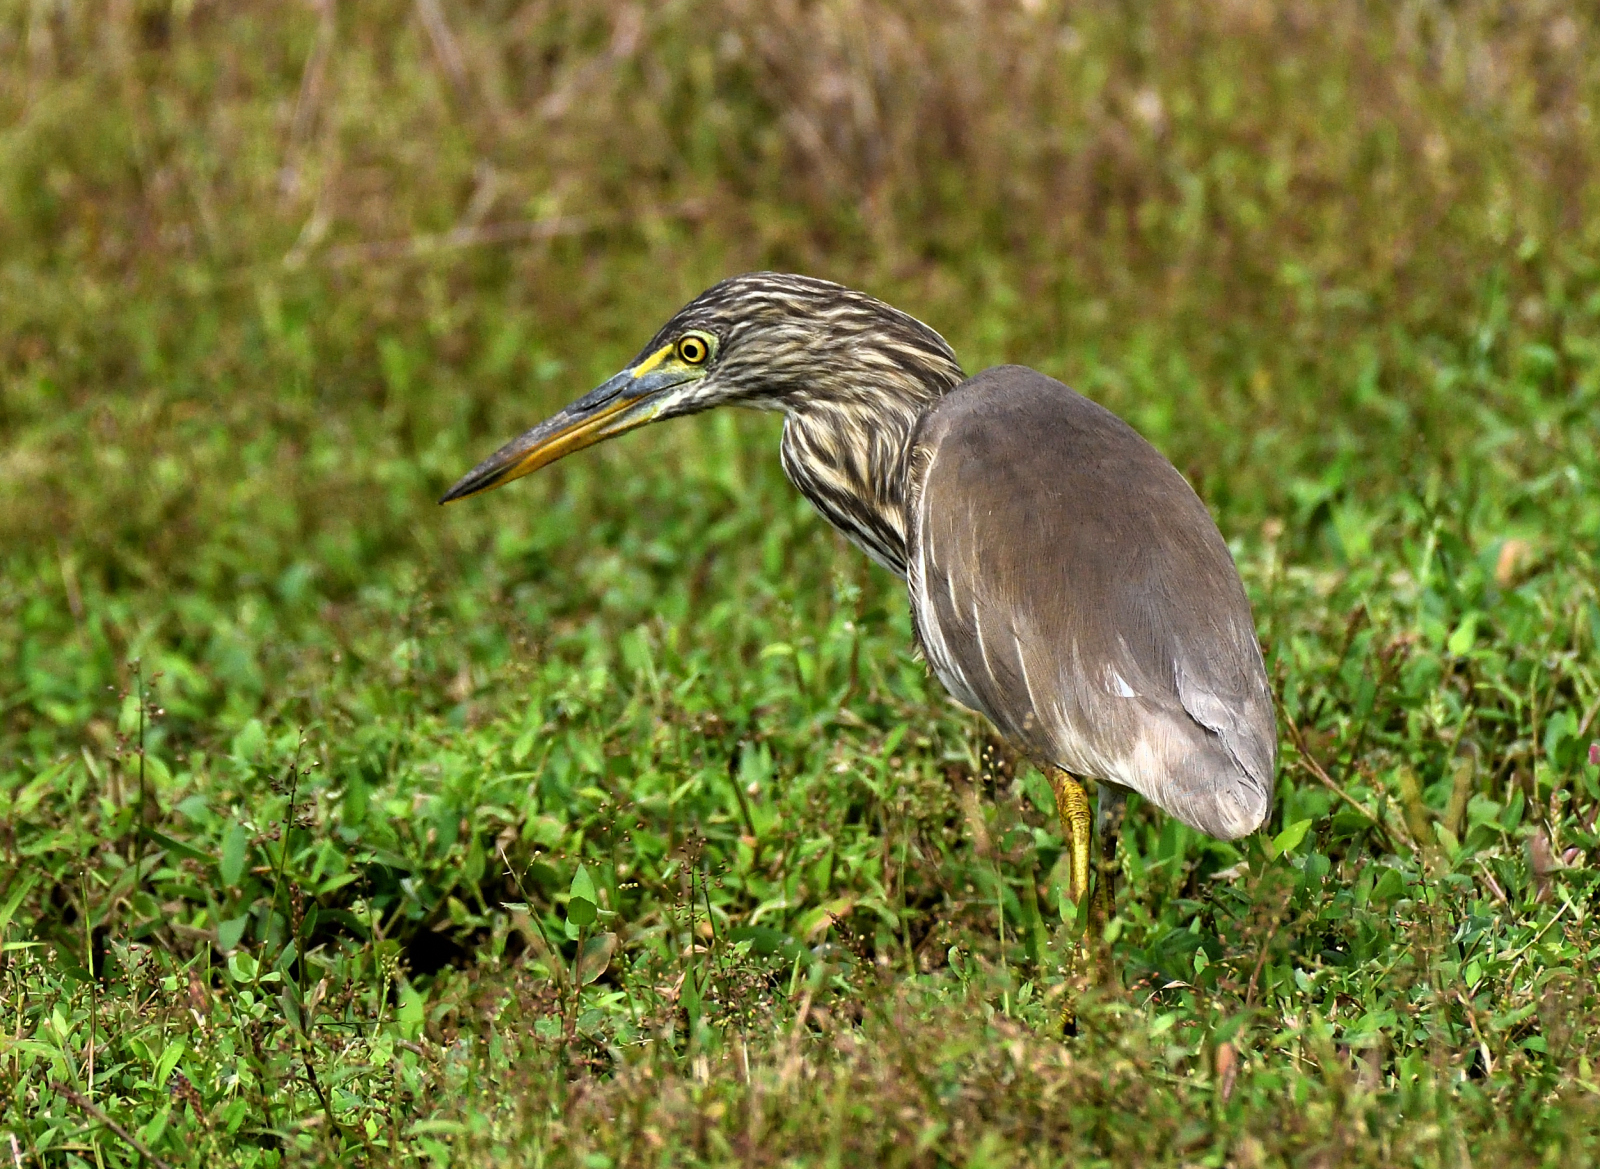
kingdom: Animalia
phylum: Chordata
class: Aves
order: Pelecaniformes
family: Ardeidae
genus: Ardeola
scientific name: Ardeola grayii
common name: Indian pond heron
